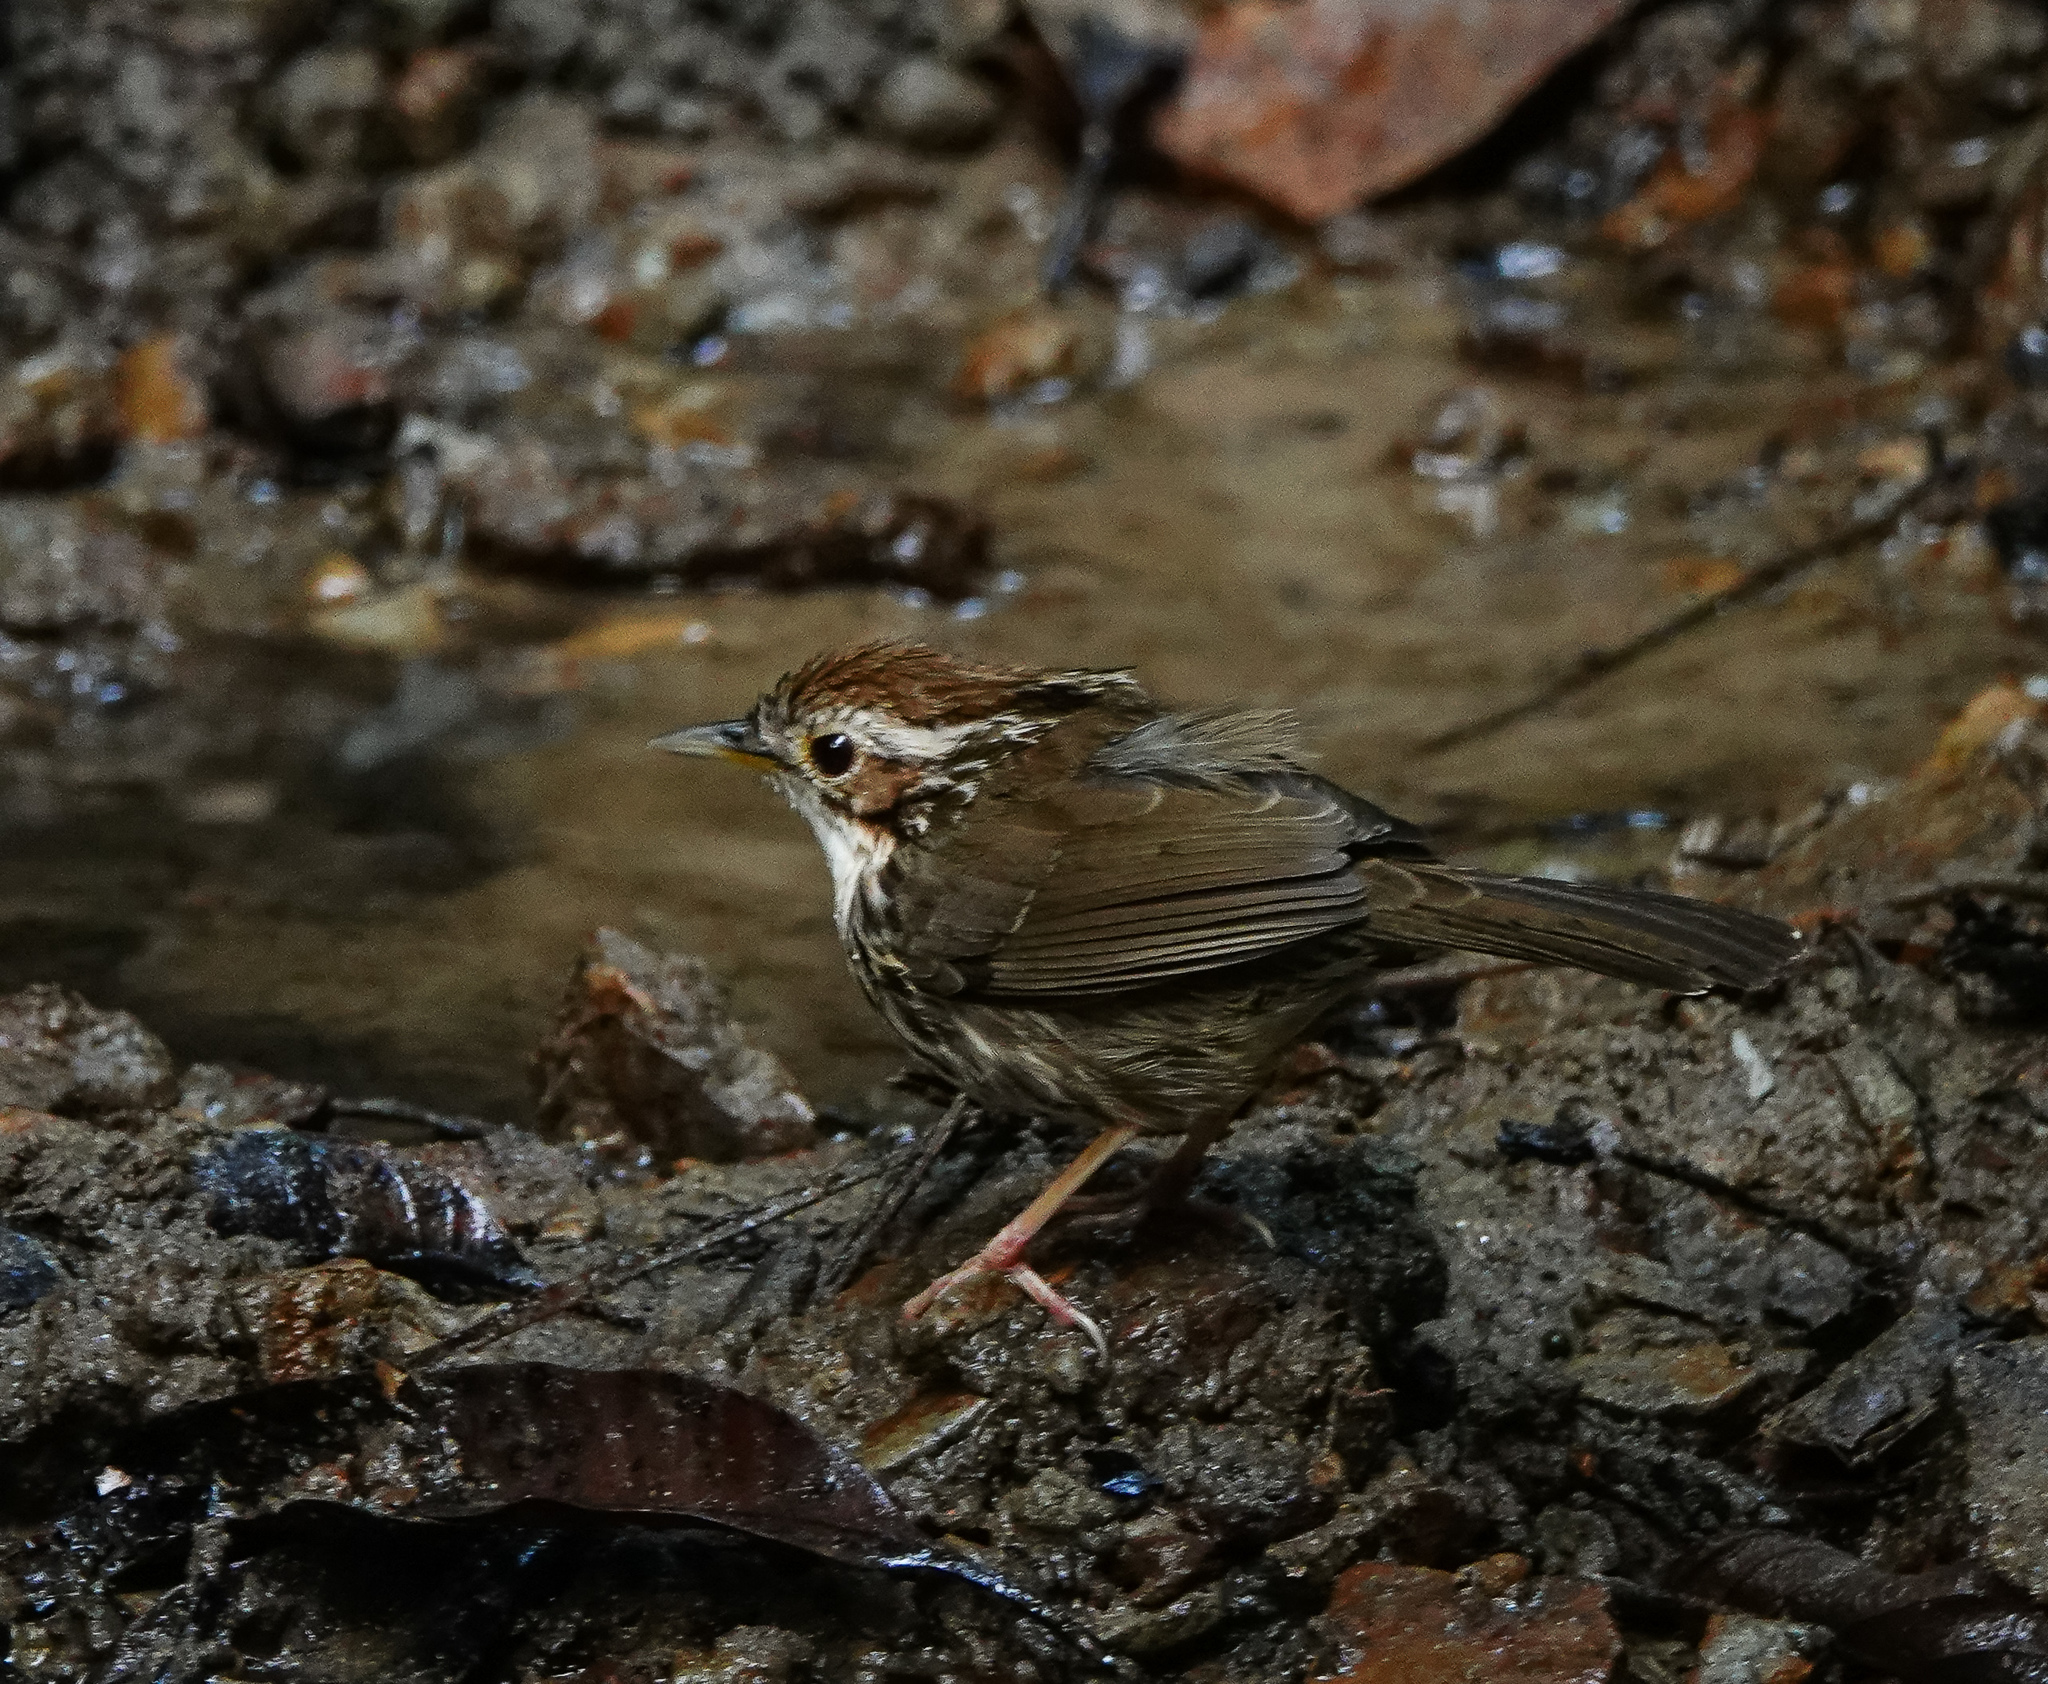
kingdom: Animalia
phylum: Chordata
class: Aves
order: Passeriformes
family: Pellorneidae
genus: Pellorneum
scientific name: Pellorneum ruficeps
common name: Puff-throated babbler
